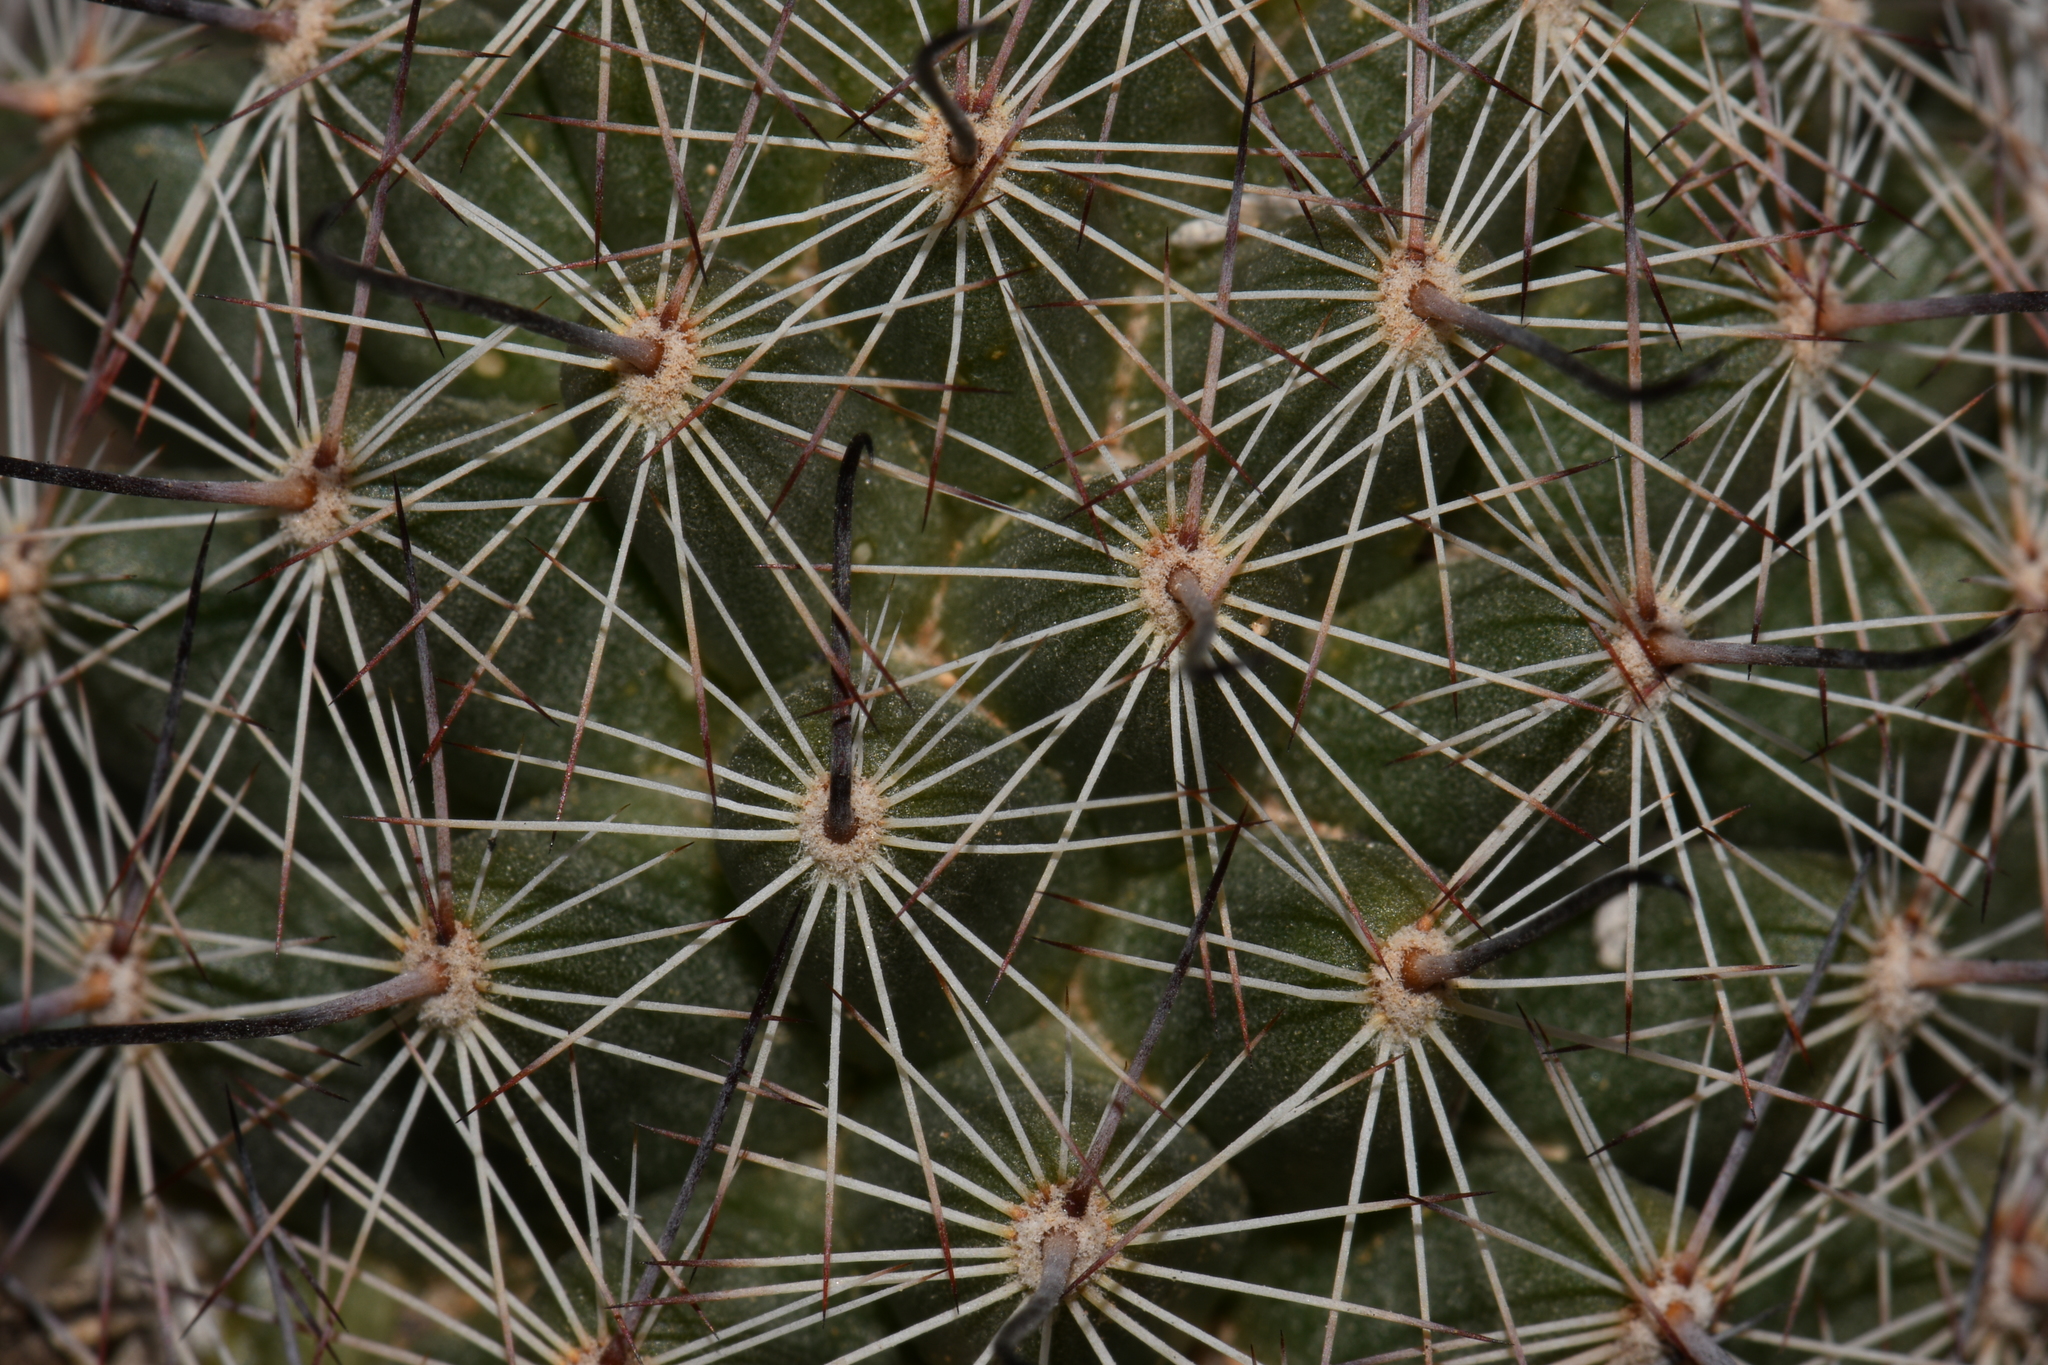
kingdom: Plantae
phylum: Tracheophyta
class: Magnoliopsida
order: Caryophyllales
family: Cactaceae
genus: Cochemiea
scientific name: Cochemiea grahamii
